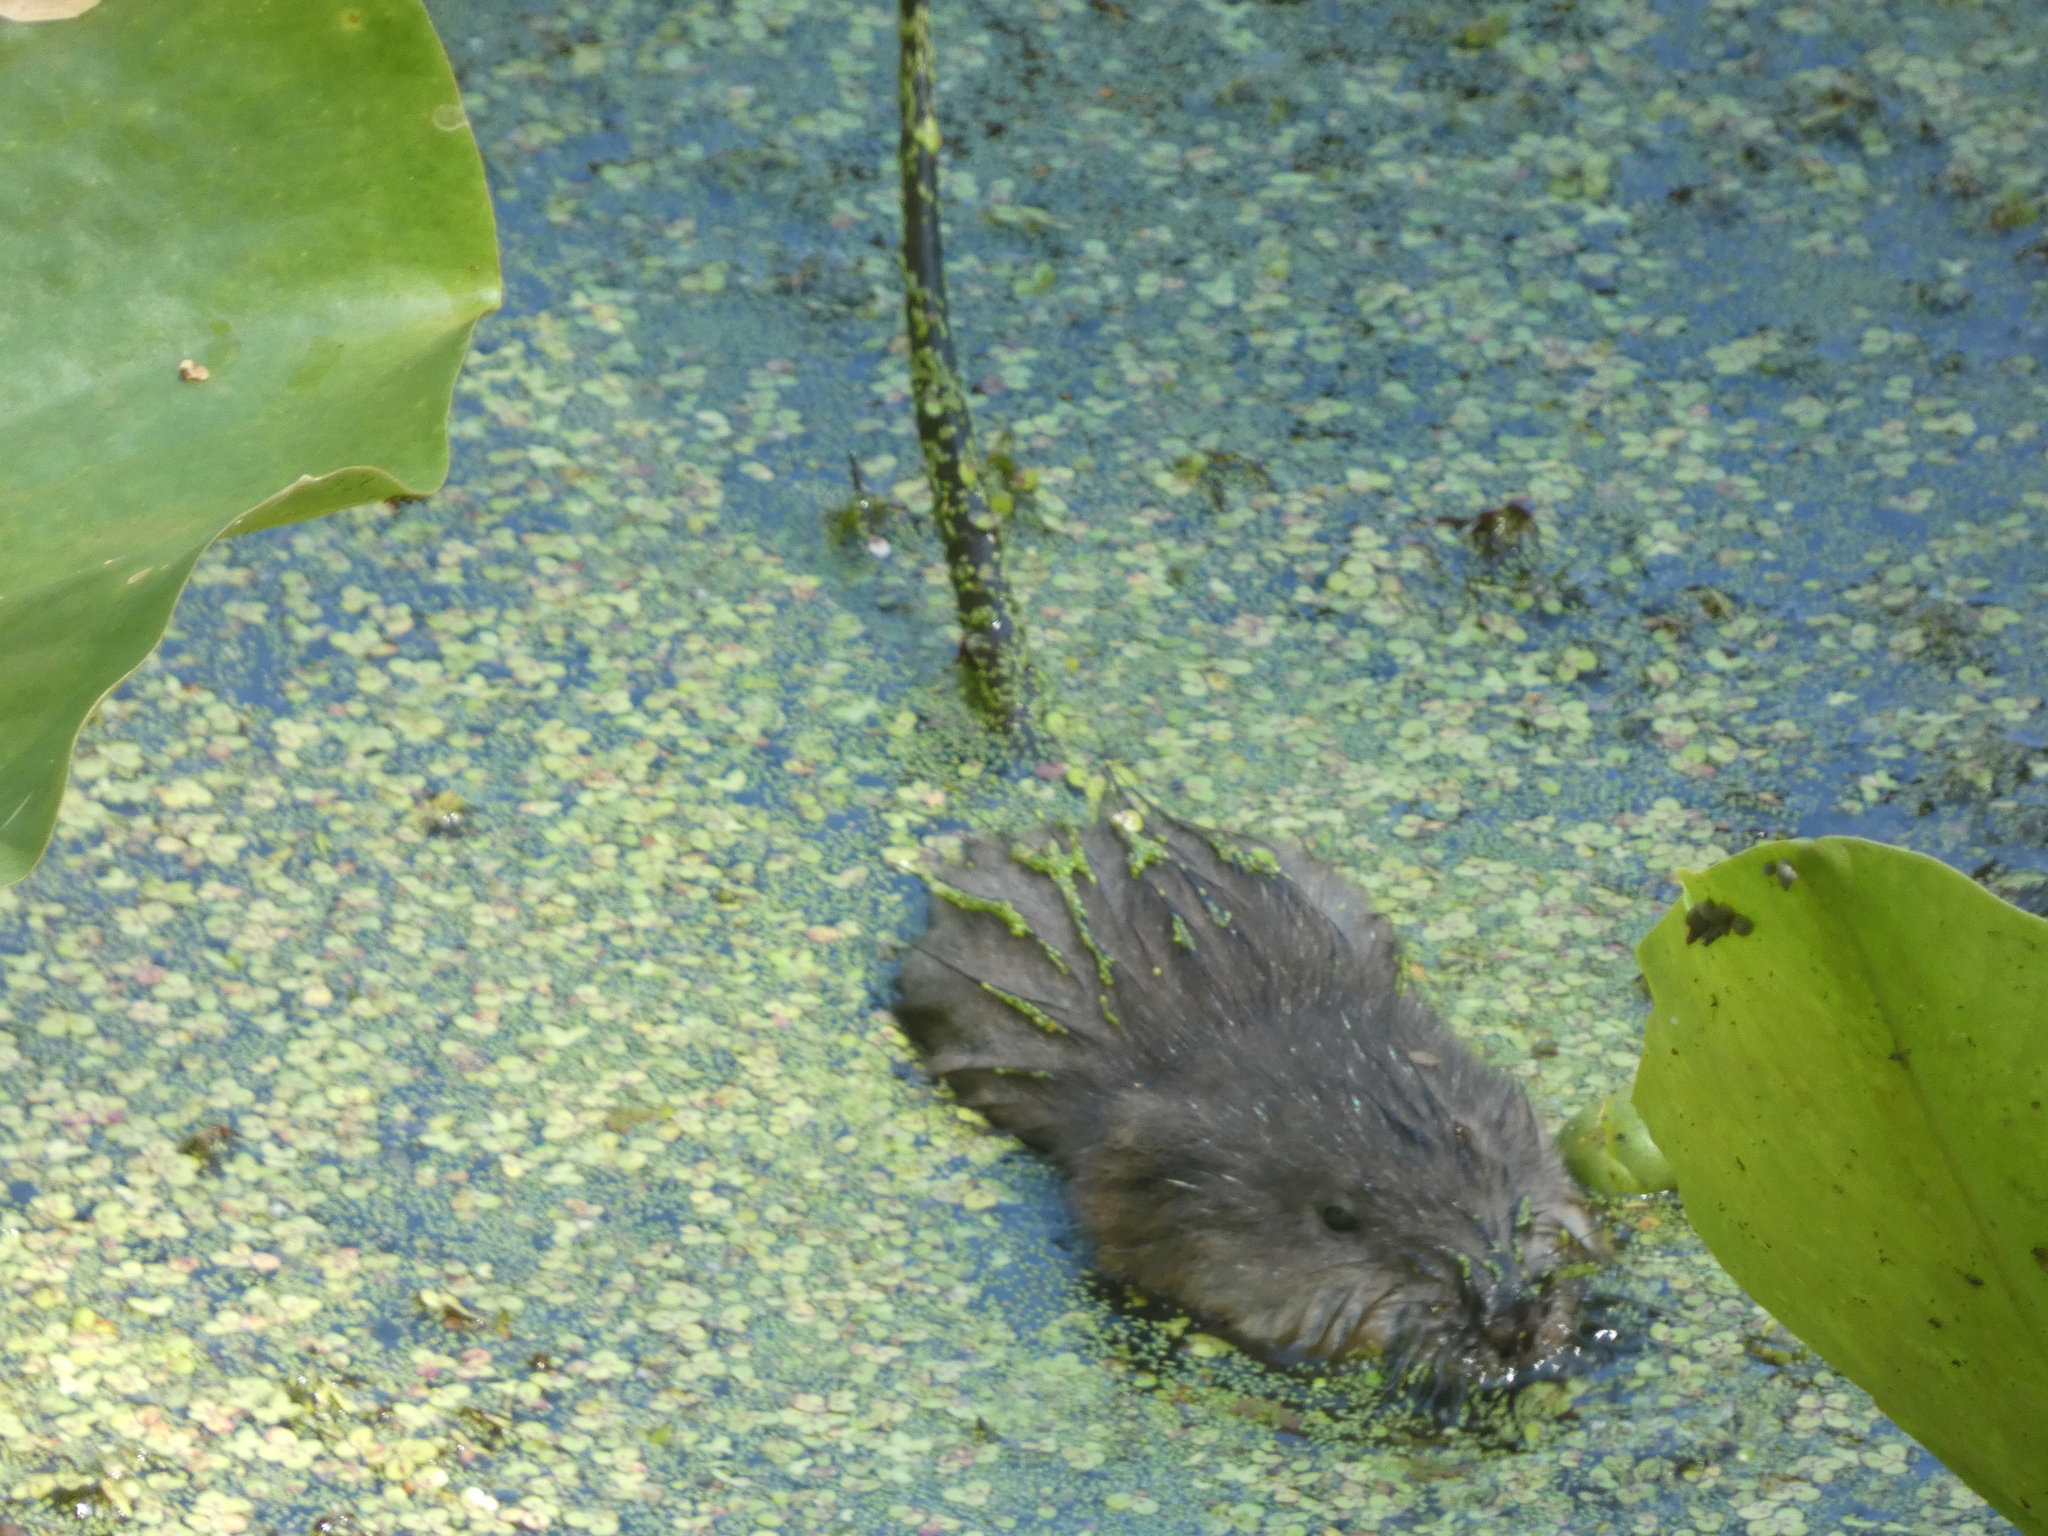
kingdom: Animalia
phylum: Chordata
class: Mammalia
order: Rodentia
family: Cricetidae
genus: Ondatra
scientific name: Ondatra zibethicus
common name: Muskrat
